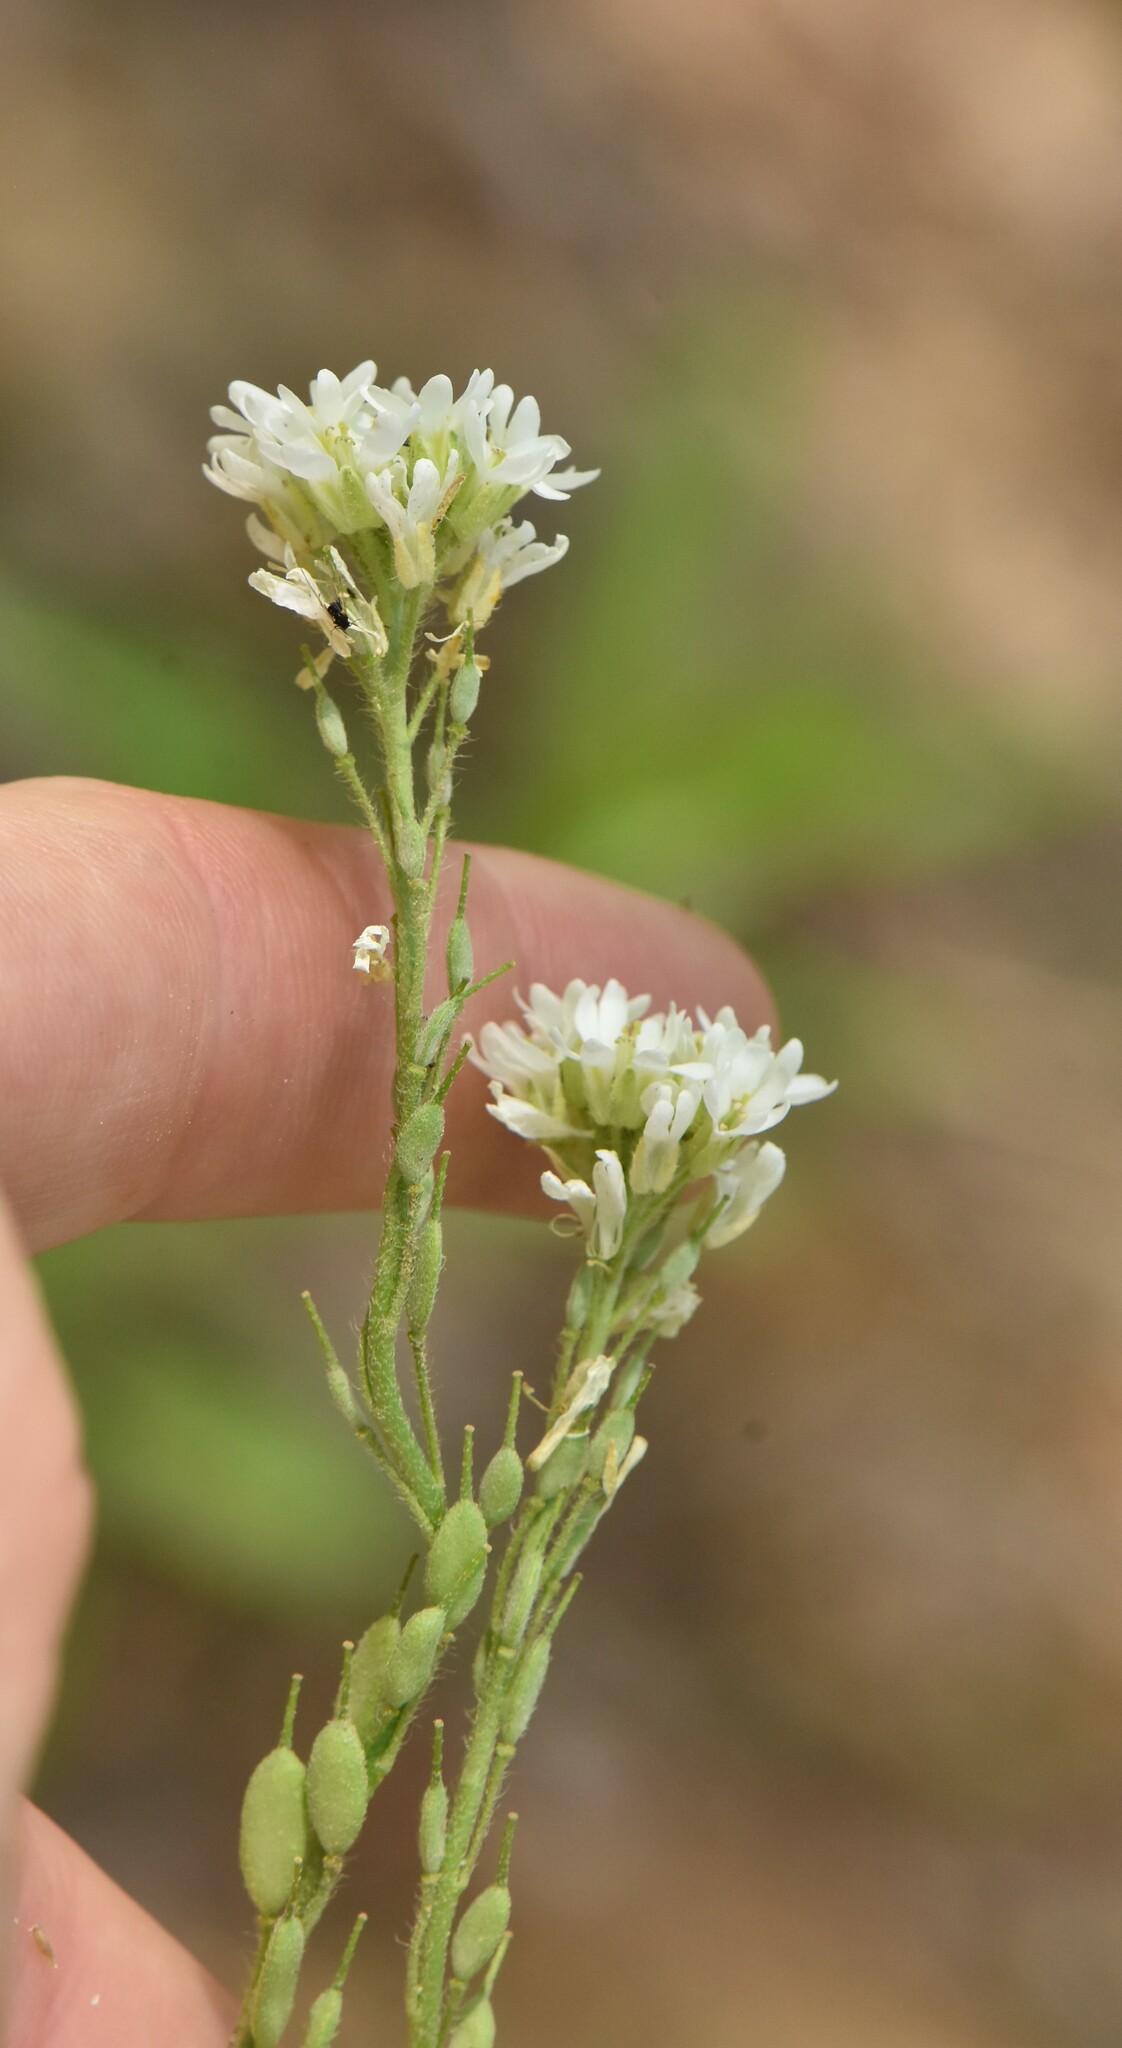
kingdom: Plantae
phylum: Tracheophyta
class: Magnoliopsida
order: Brassicales
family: Brassicaceae
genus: Berteroa
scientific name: Berteroa incana
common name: Hoary alison
